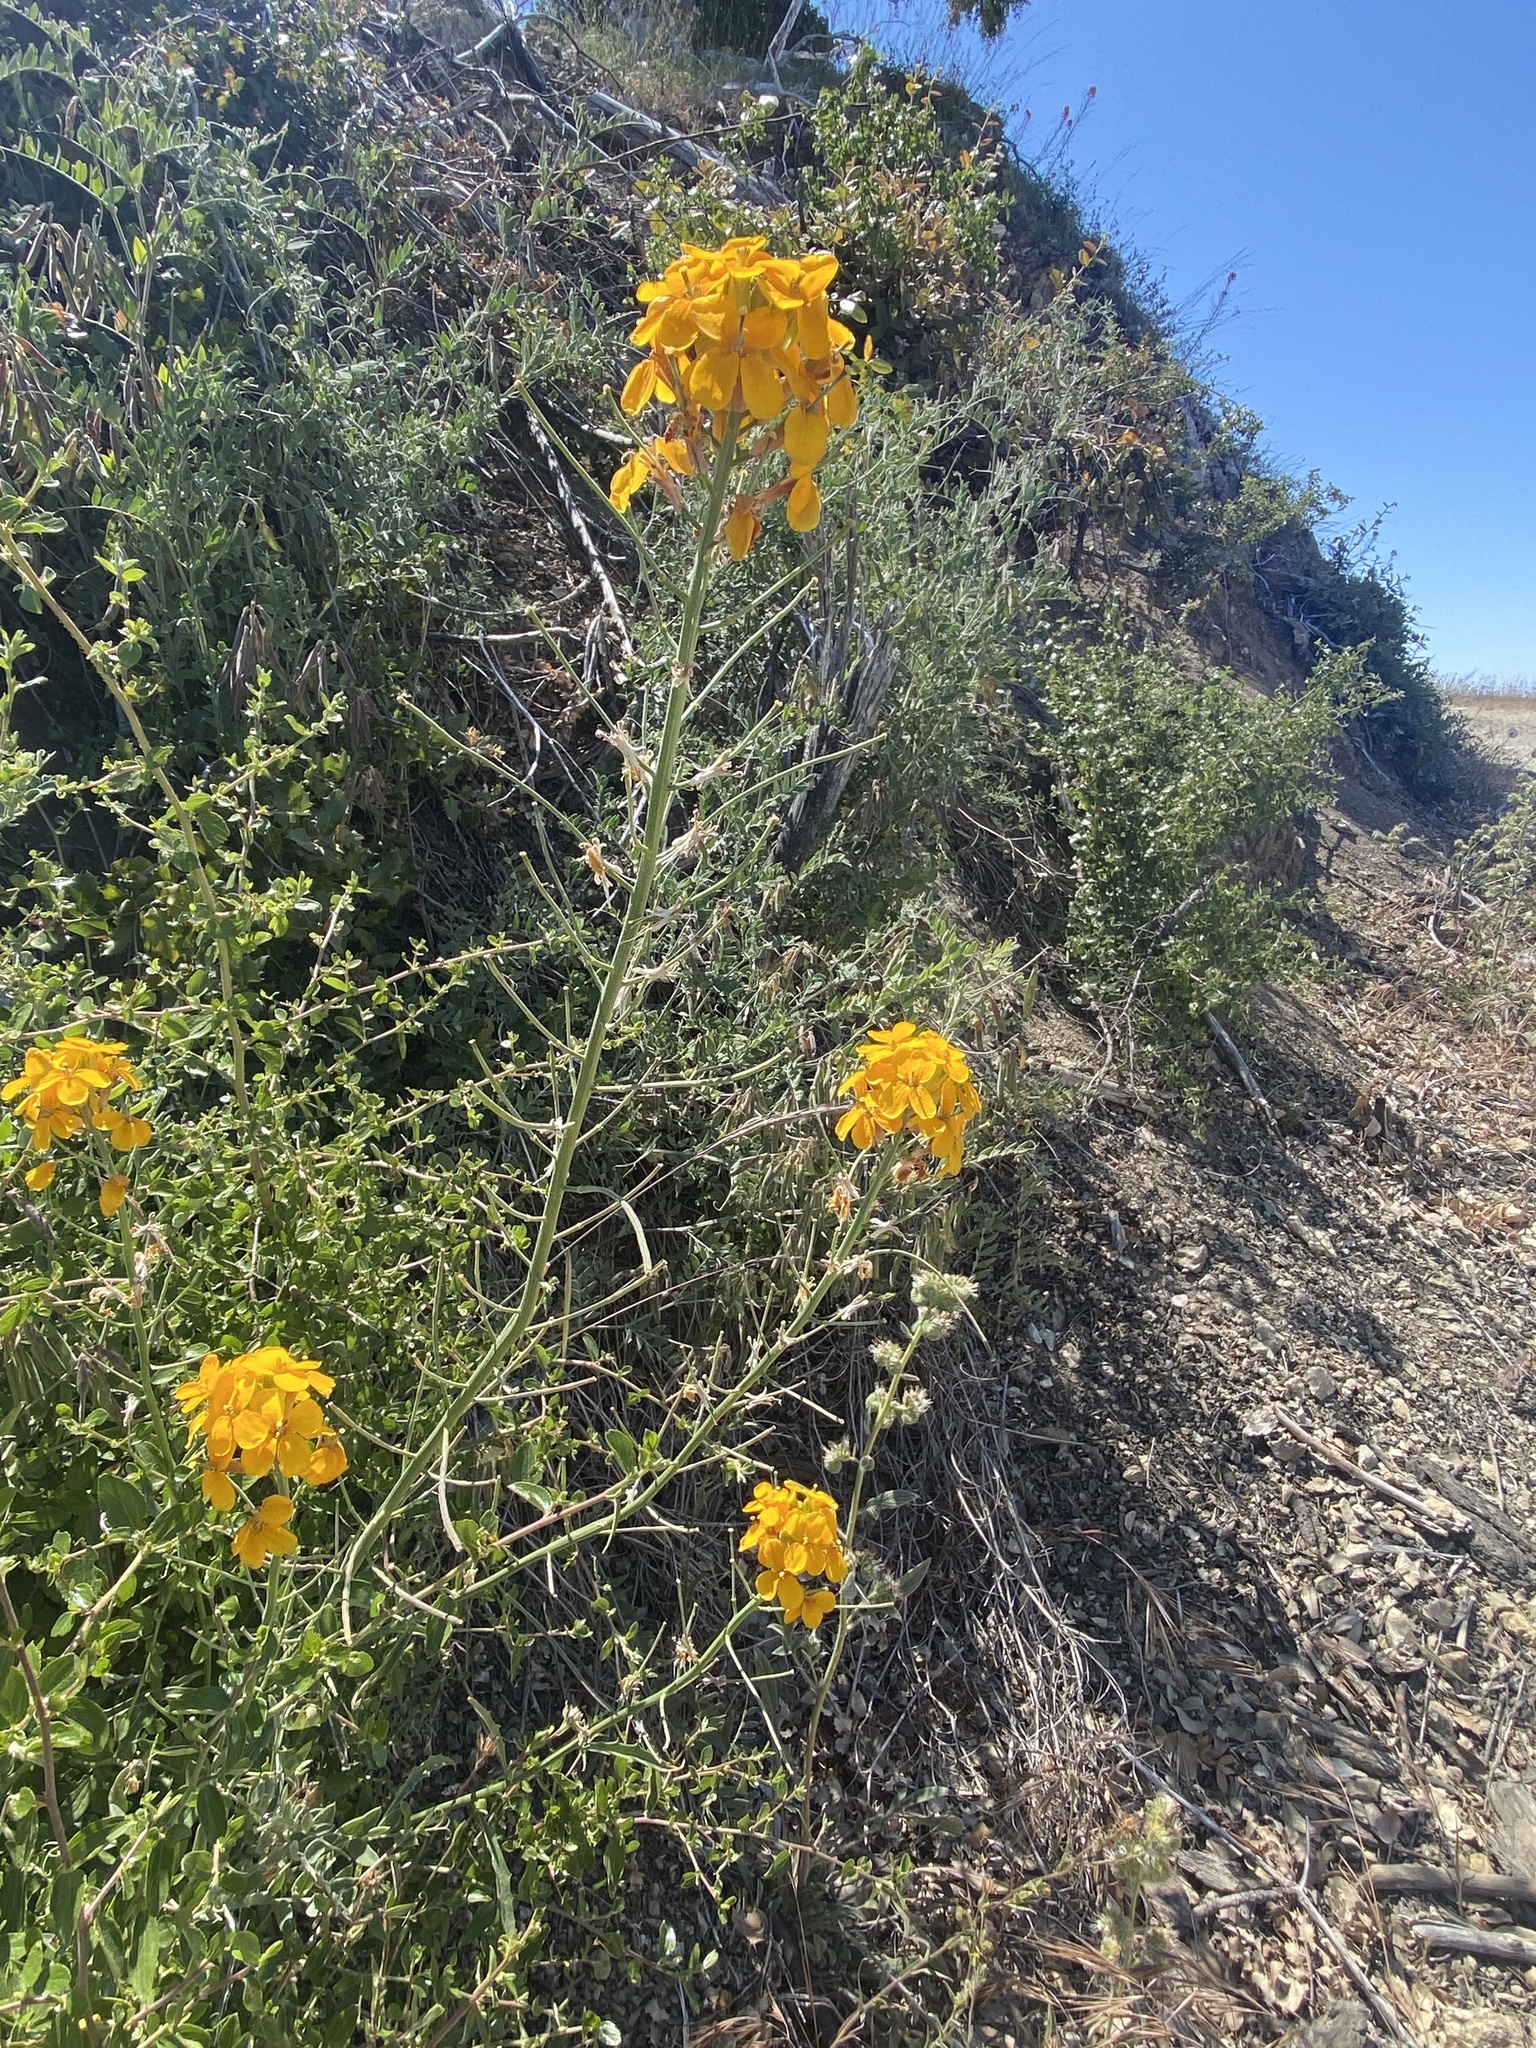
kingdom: Plantae
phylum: Tracheophyta
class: Magnoliopsida
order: Brassicales
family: Brassicaceae
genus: Erysimum
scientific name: Erysimum capitatum
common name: Western wallflower
